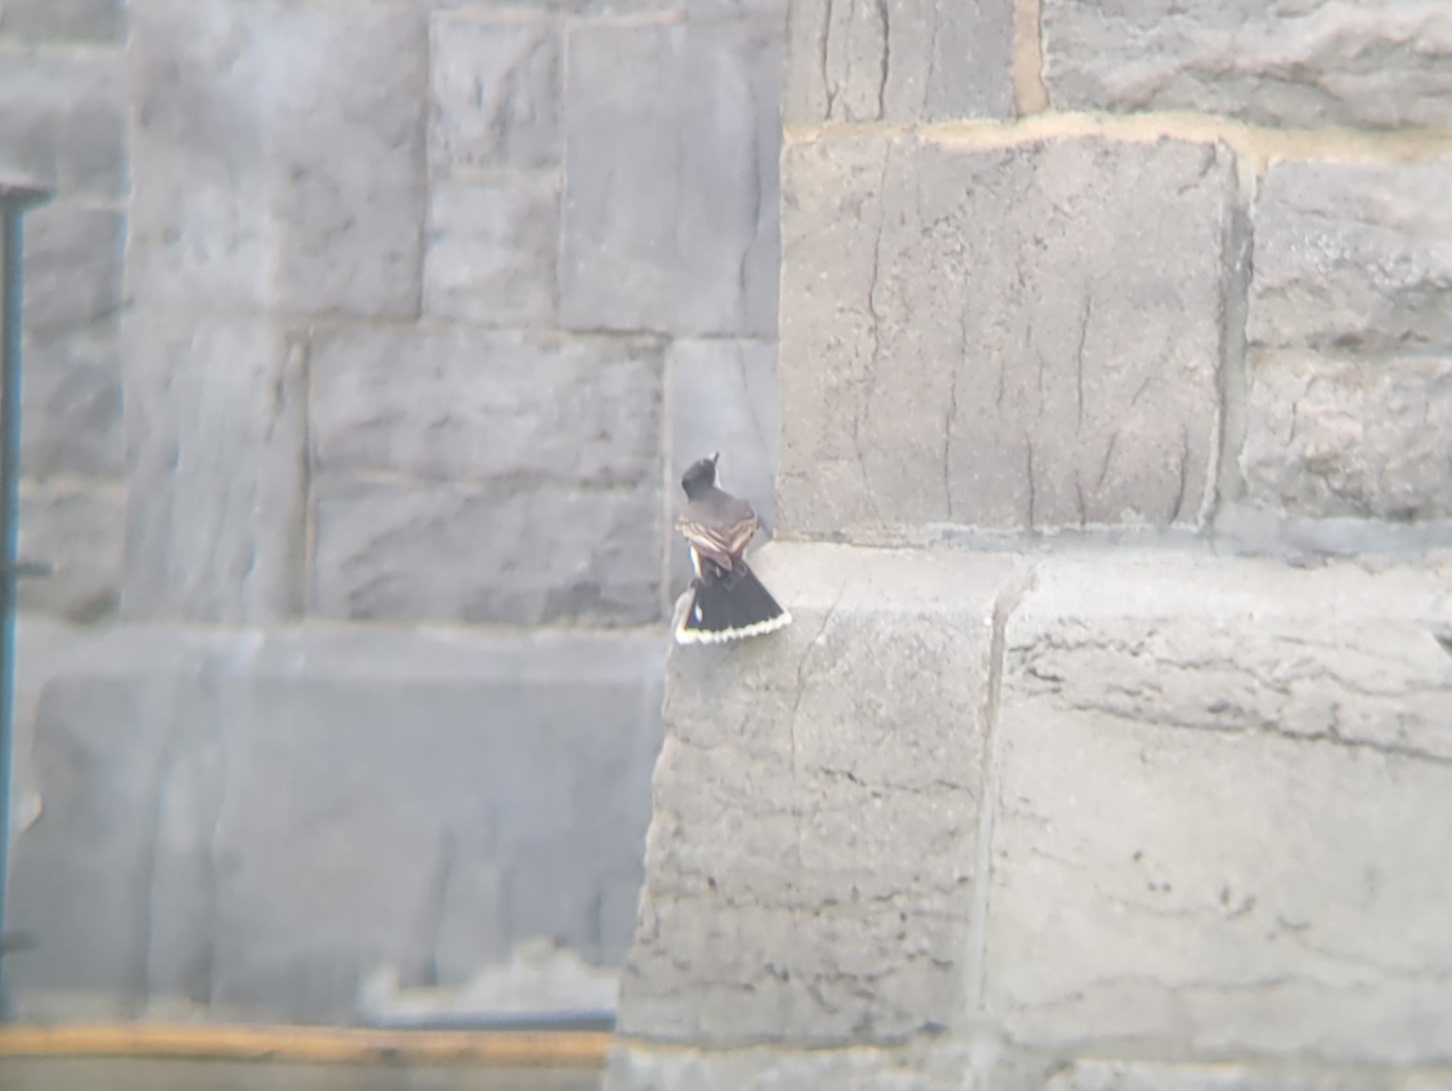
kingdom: Animalia
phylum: Chordata
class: Aves
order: Passeriformes
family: Tyrannidae
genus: Tyrannus
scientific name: Tyrannus tyrannus
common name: Eastern kingbird
